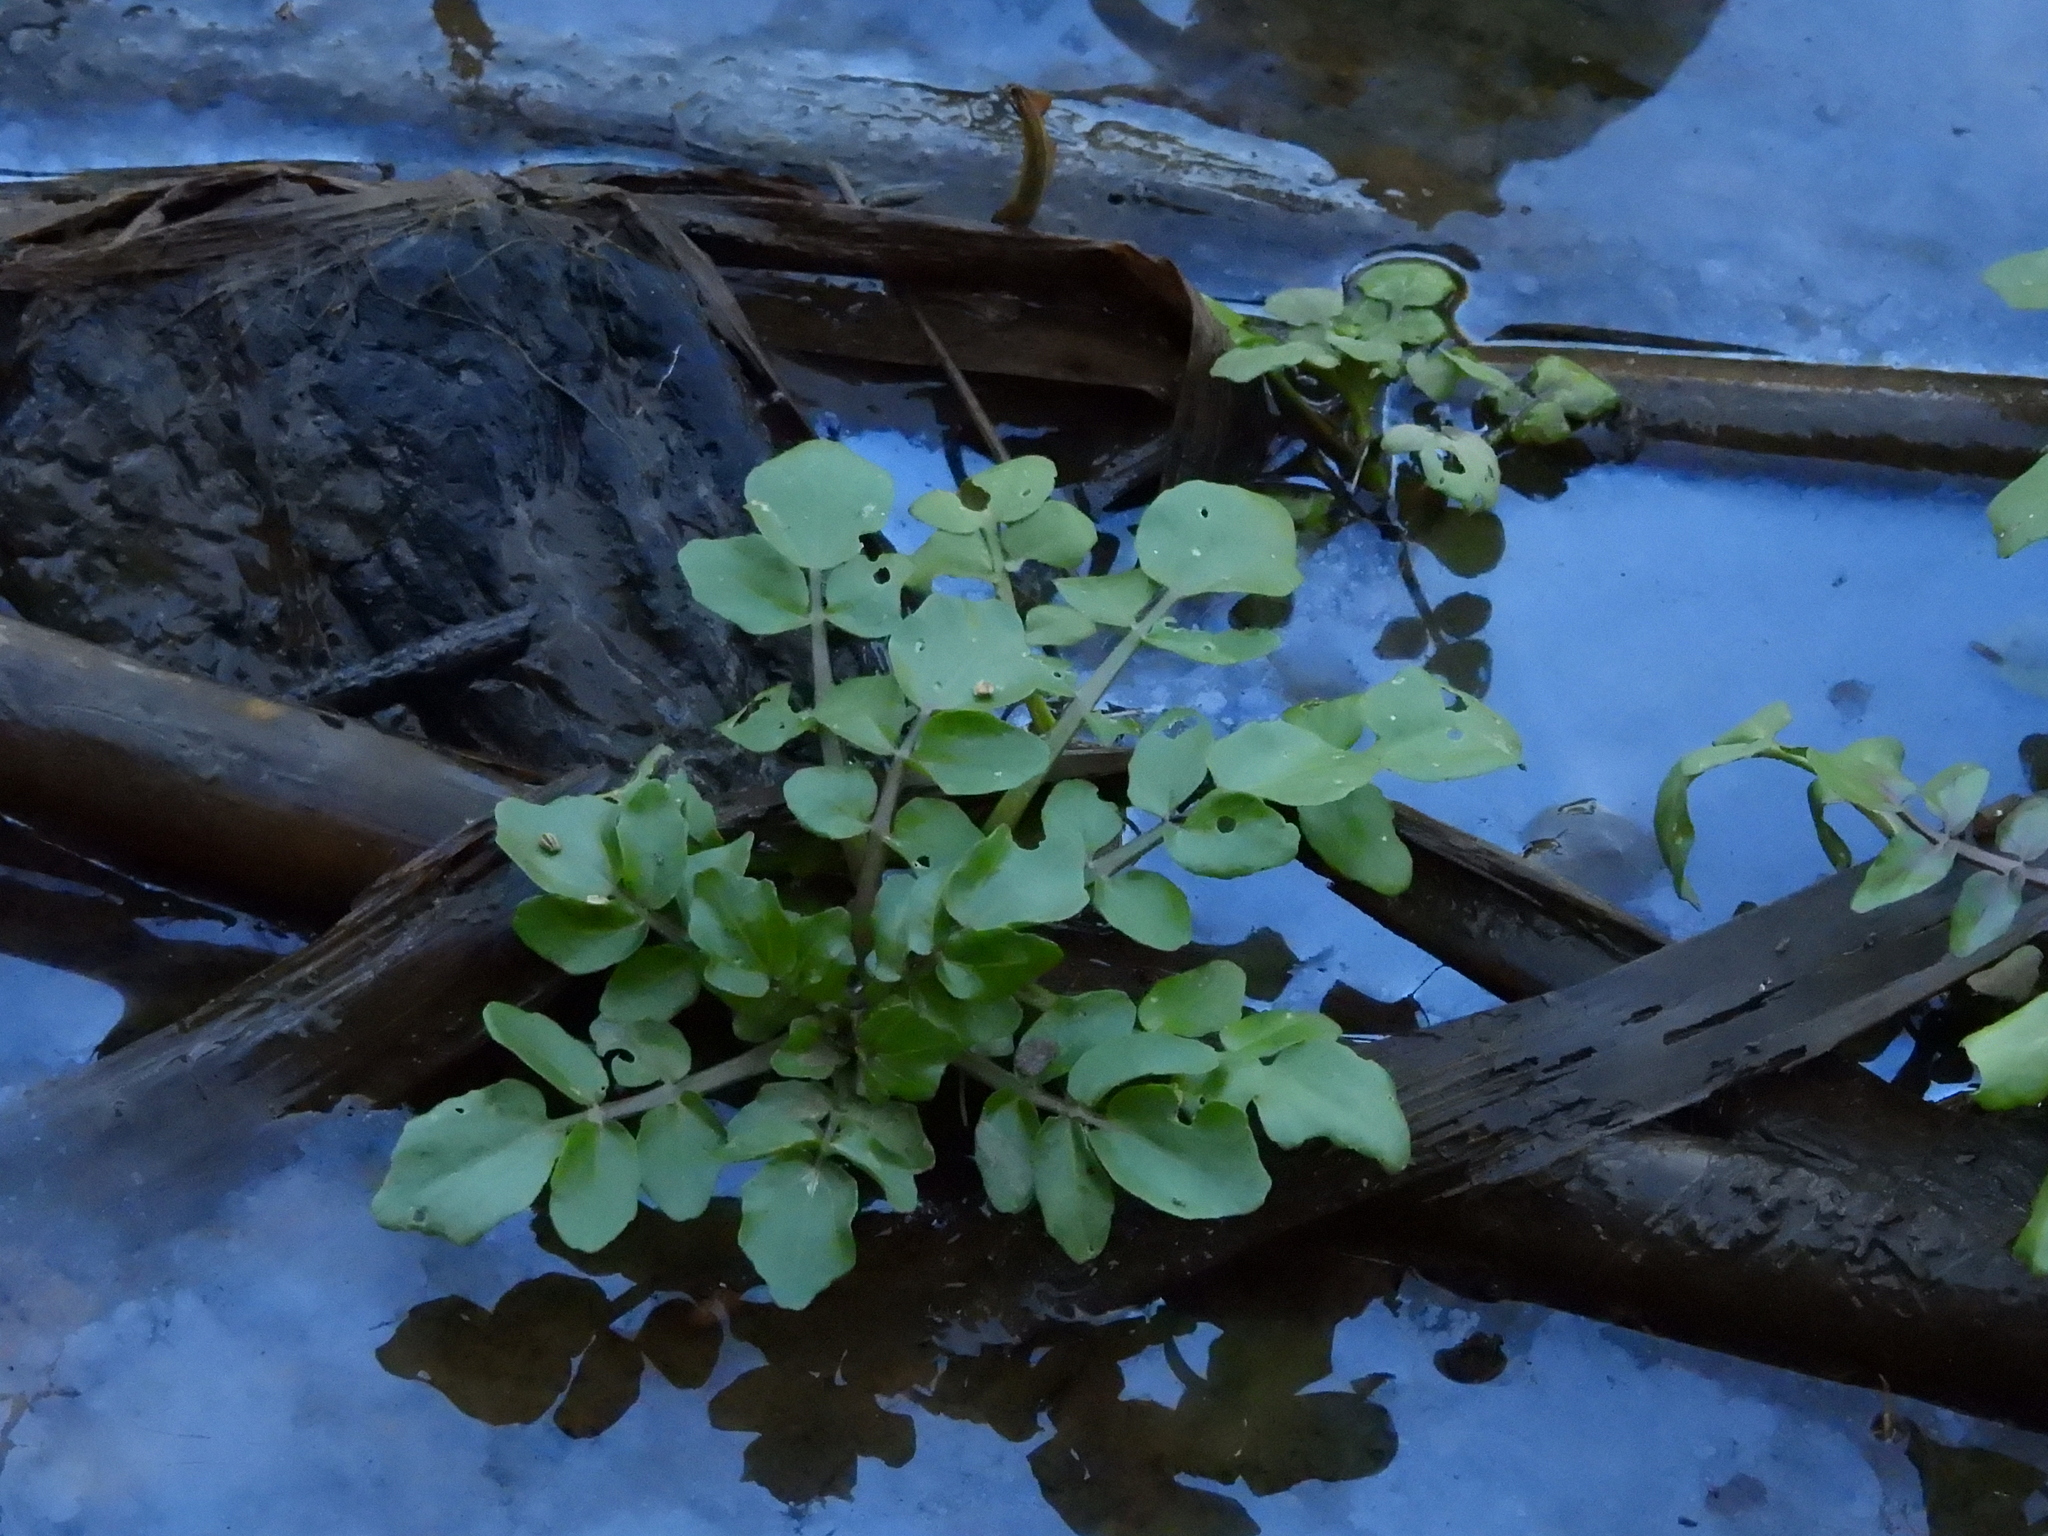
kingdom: Plantae
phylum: Tracheophyta
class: Magnoliopsida
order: Brassicales
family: Brassicaceae
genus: Nasturtium
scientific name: Nasturtium officinale
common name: Watercress
